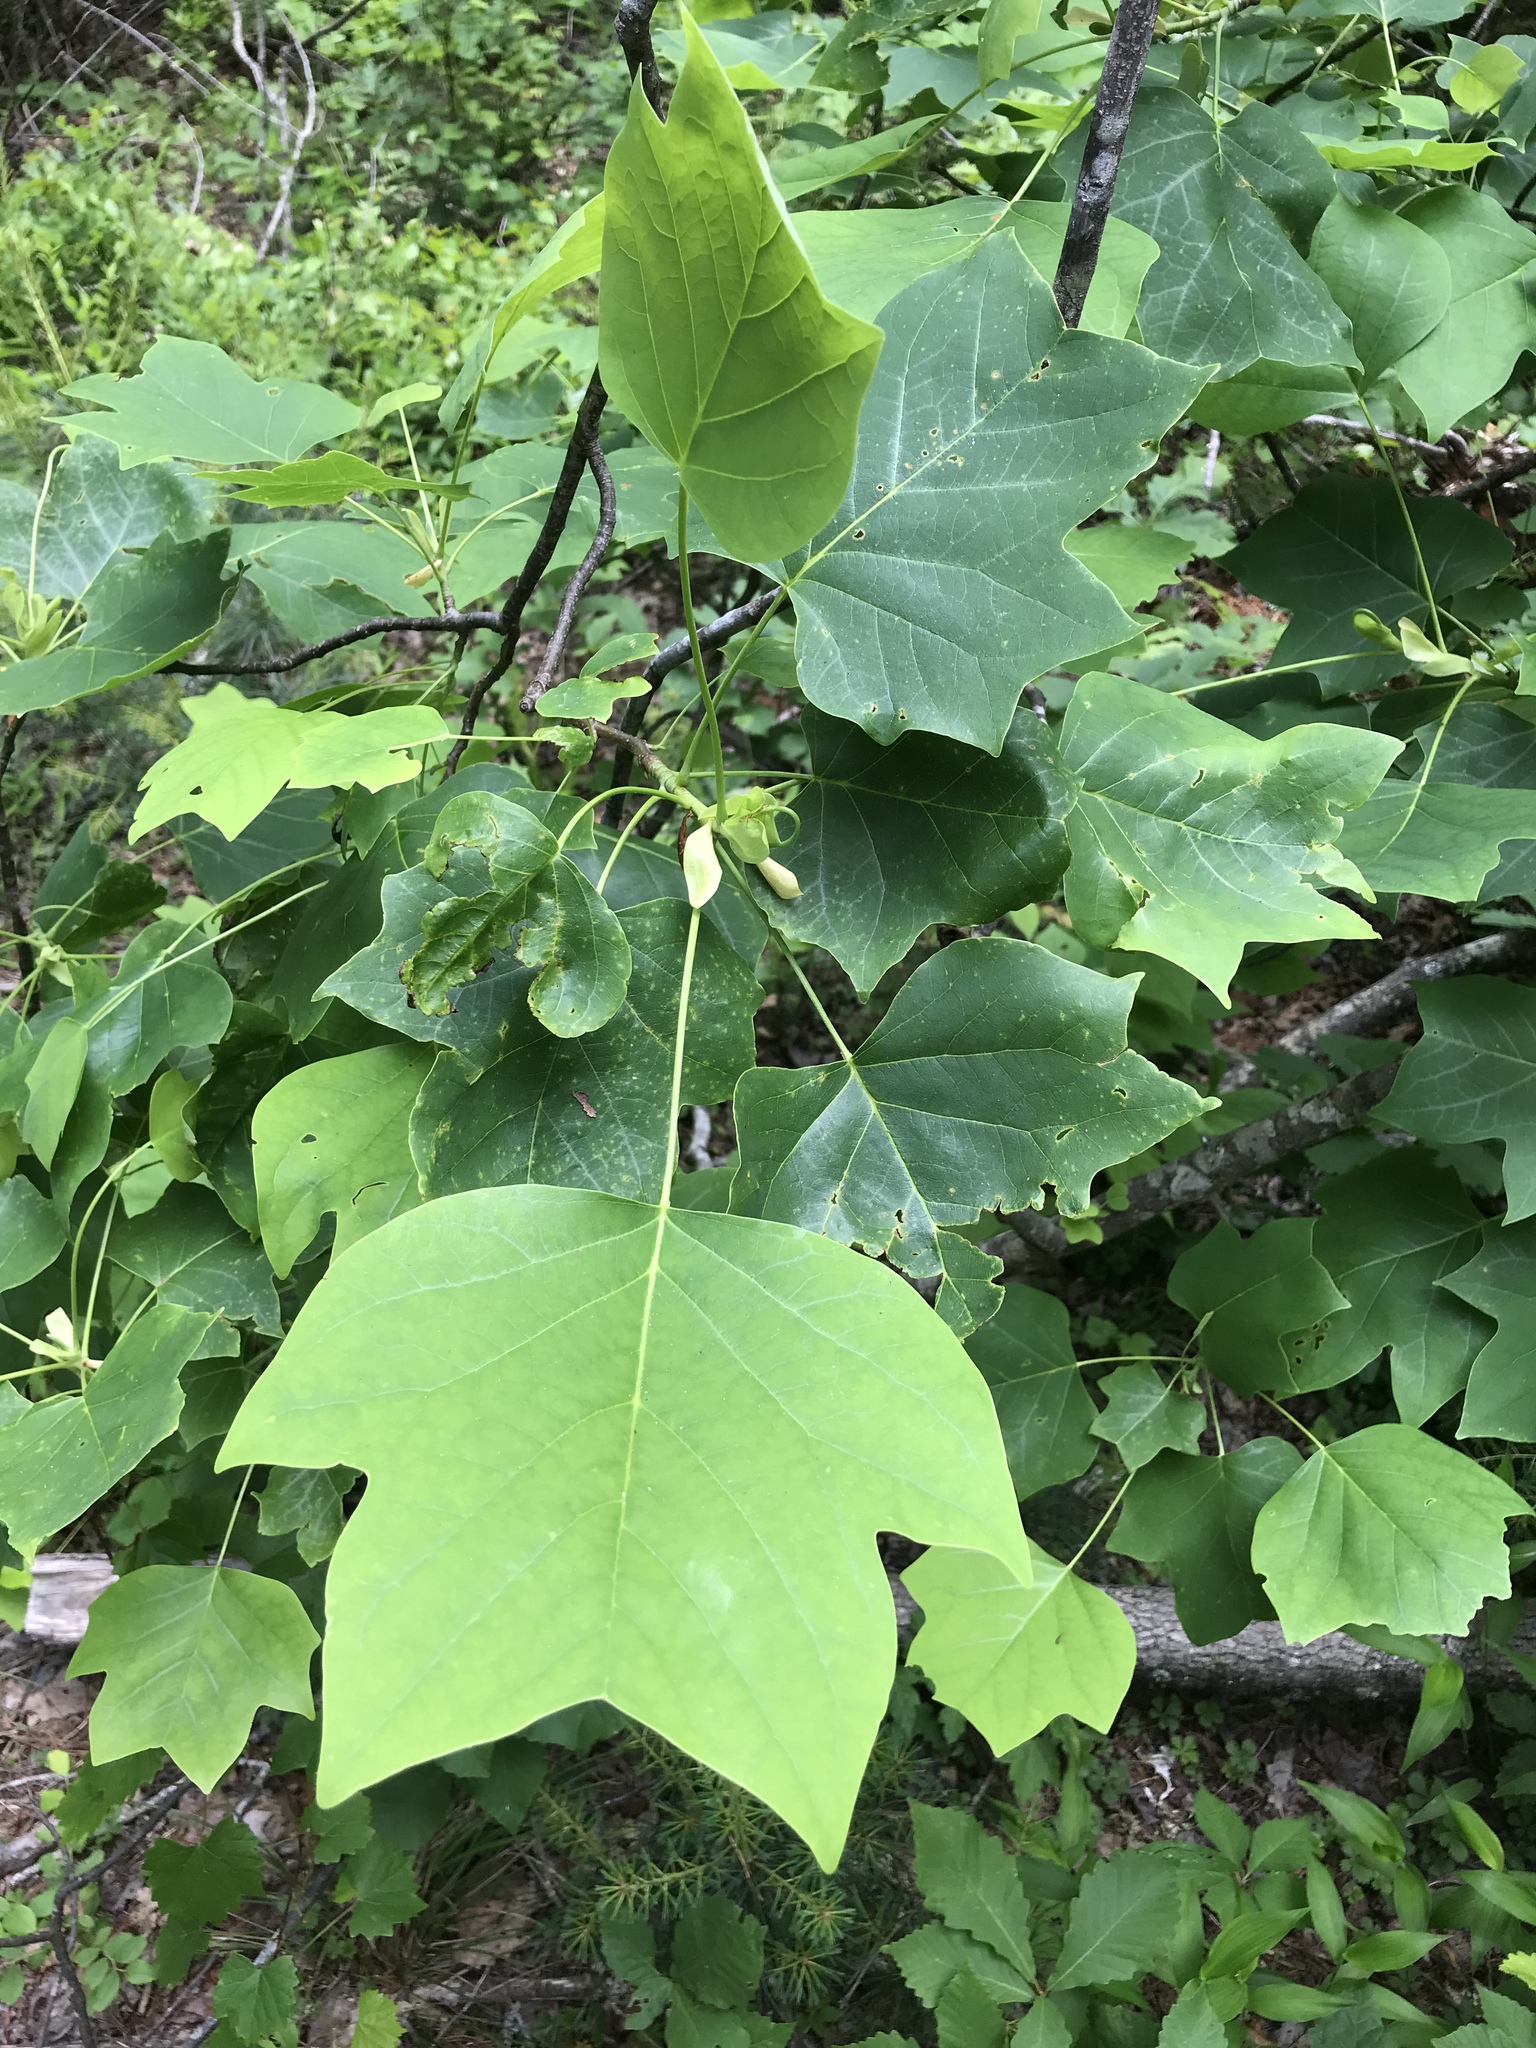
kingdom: Plantae
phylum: Tracheophyta
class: Magnoliopsida
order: Magnoliales
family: Magnoliaceae
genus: Liriodendron
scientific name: Liriodendron tulipifera
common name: Tulip tree
